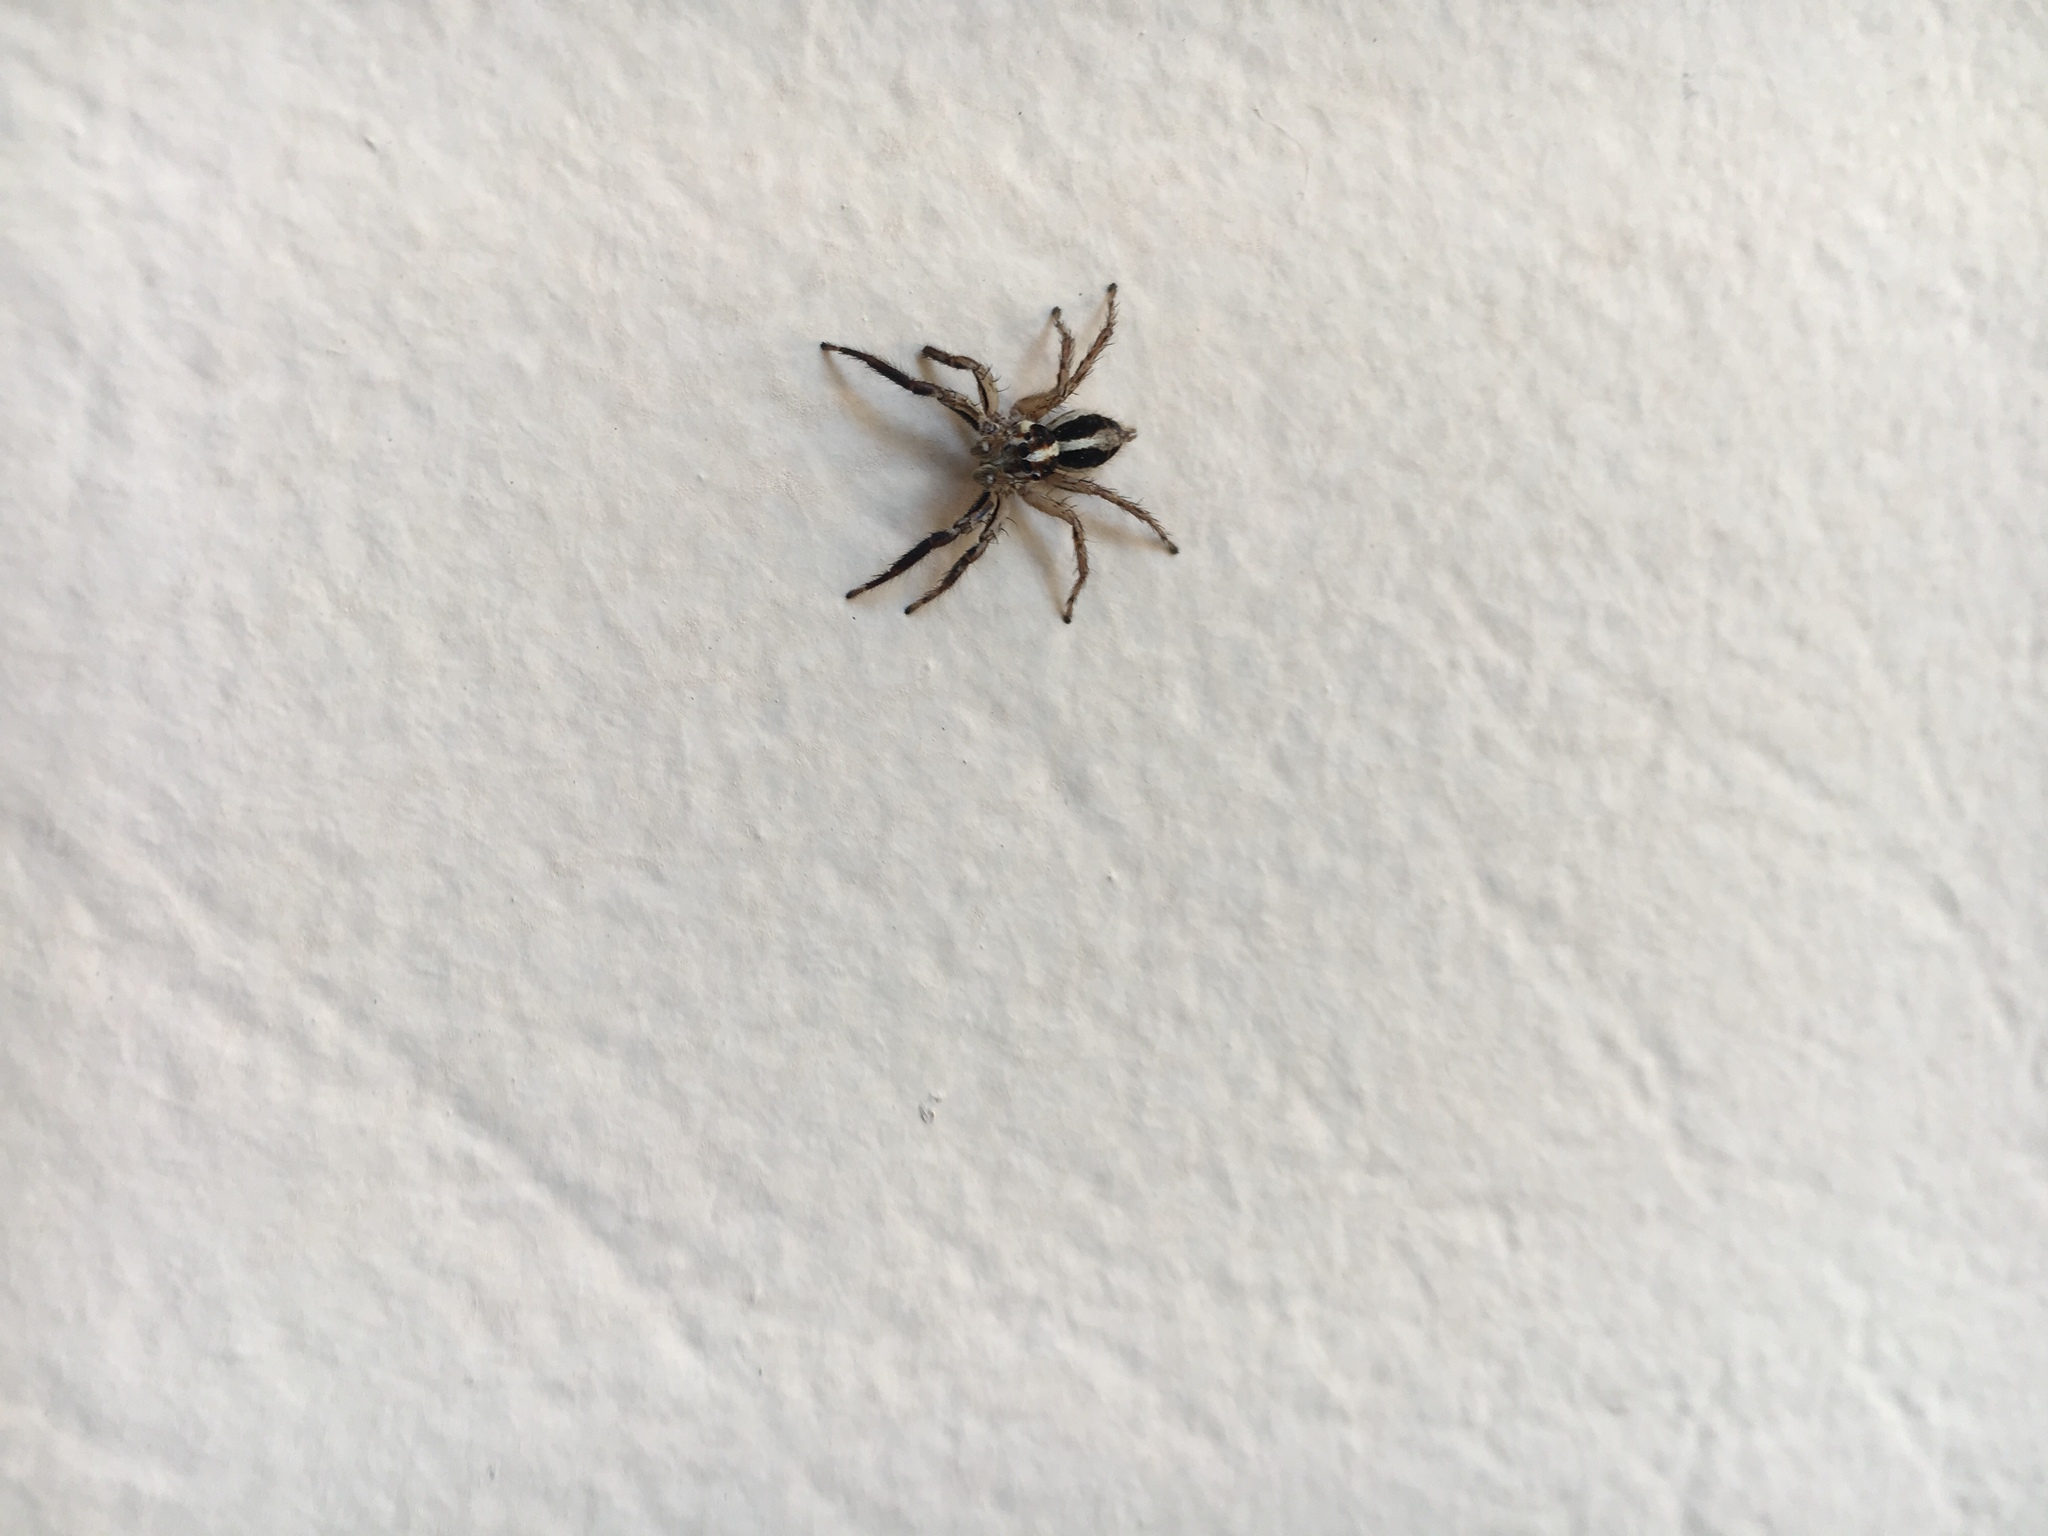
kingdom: Animalia
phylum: Arthropoda
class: Arachnida
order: Araneae
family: Salticidae
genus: Plexippus
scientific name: Plexippus paykulli
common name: Pantropical jumper
